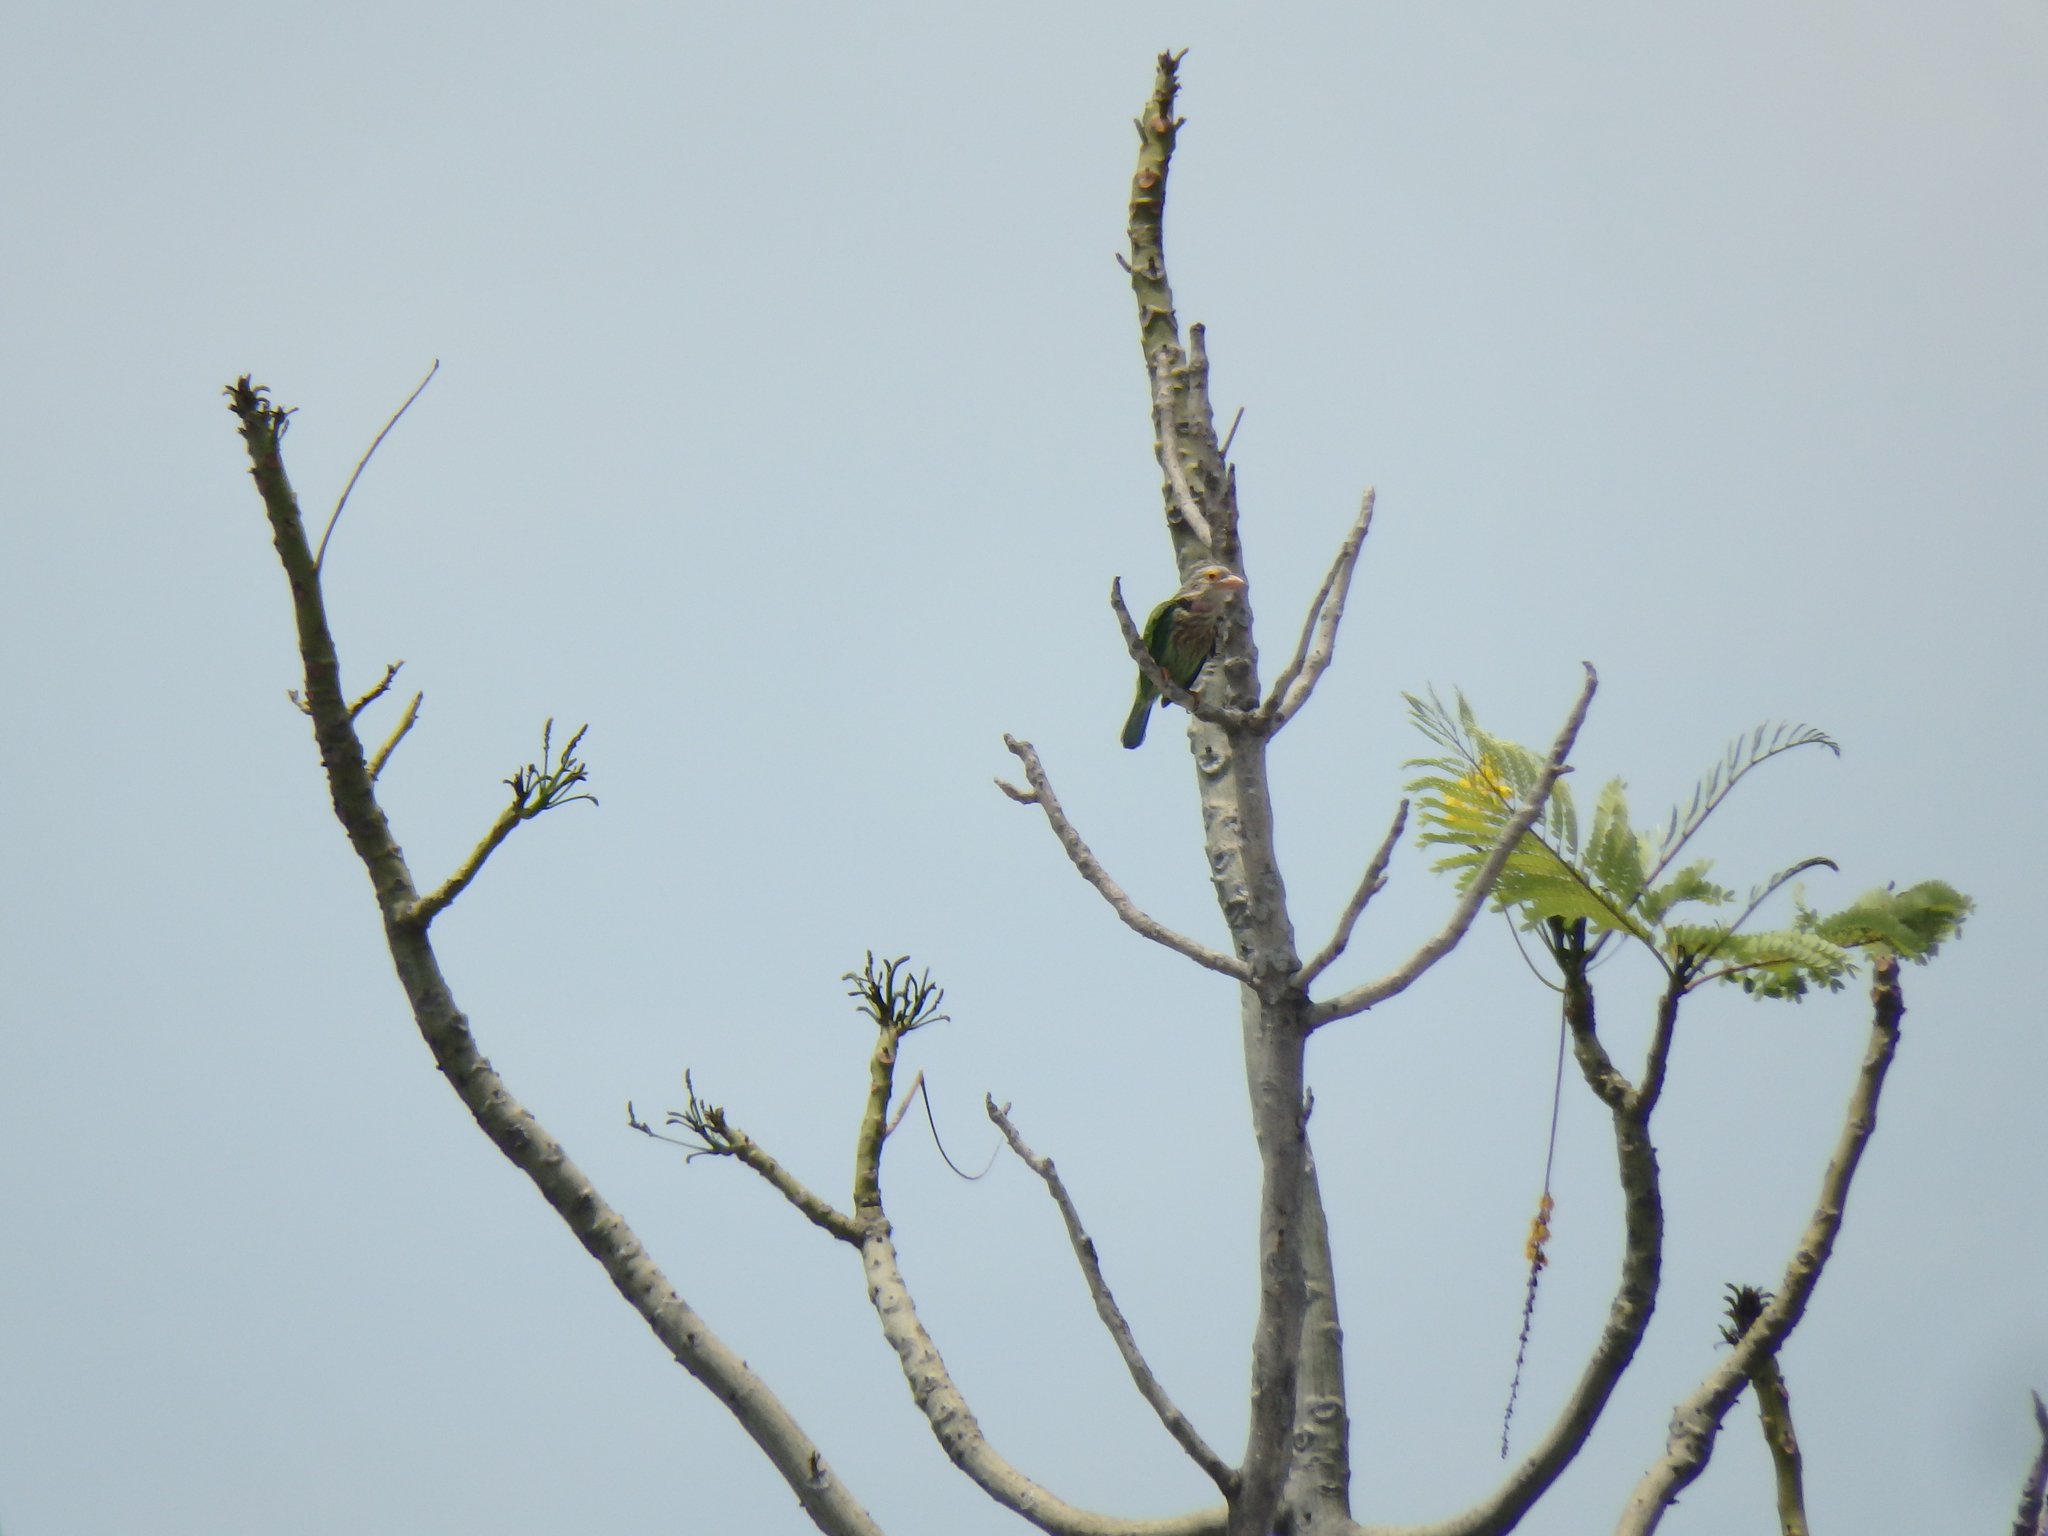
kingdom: Animalia
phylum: Chordata
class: Aves
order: Piciformes
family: Megalaimidae
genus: Psilopogon
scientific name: Psilopogon lineatus
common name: Lineated barbet
